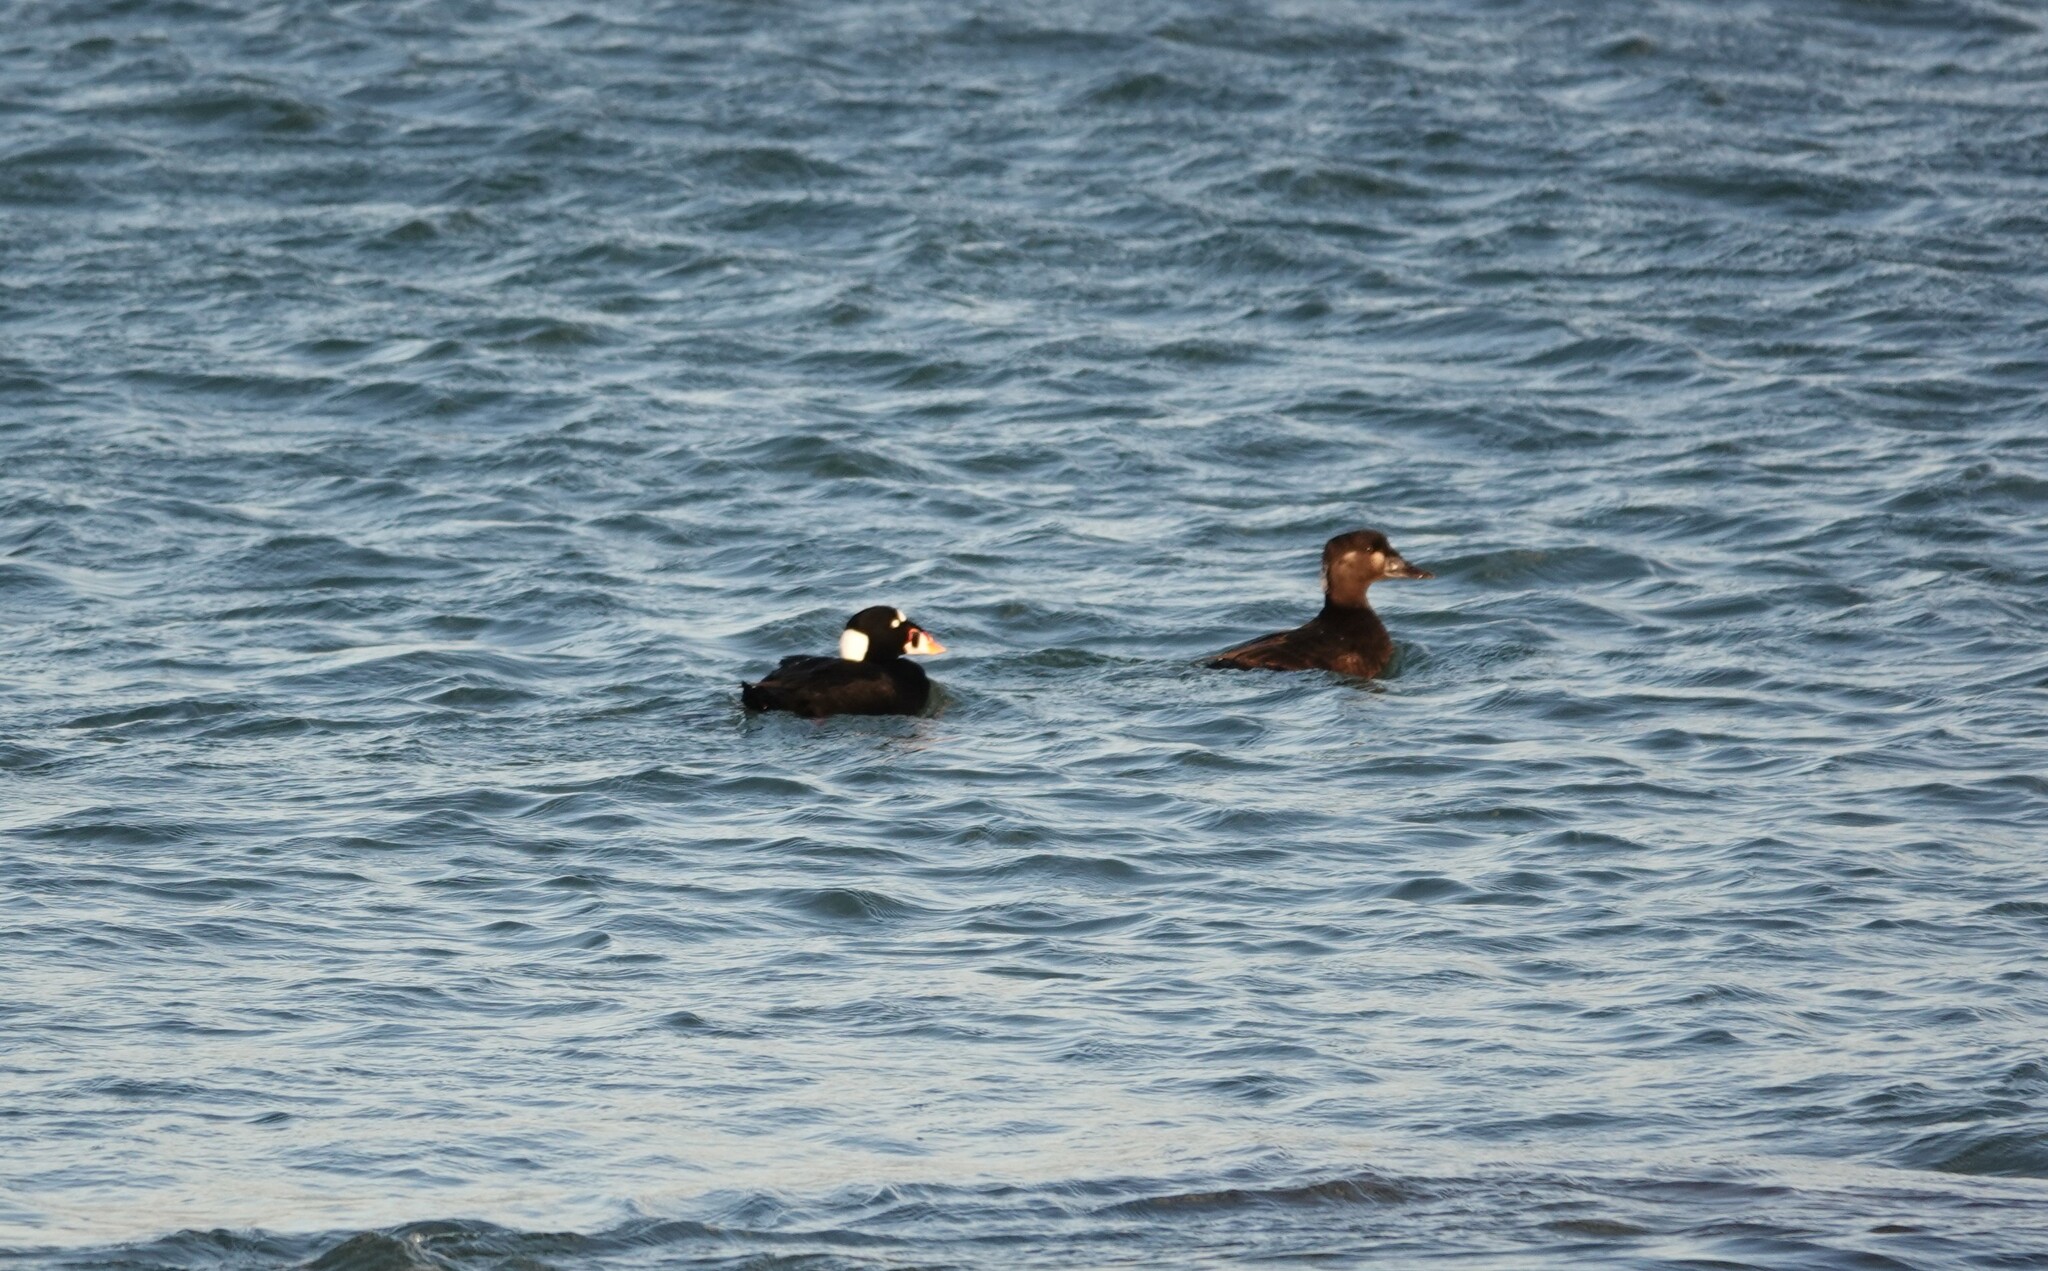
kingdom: Animalia
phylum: Chordata
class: Aves
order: Anseriformes
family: Anatidae
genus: Melanitta
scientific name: Melanitta perspicillata
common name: Surf scoter
